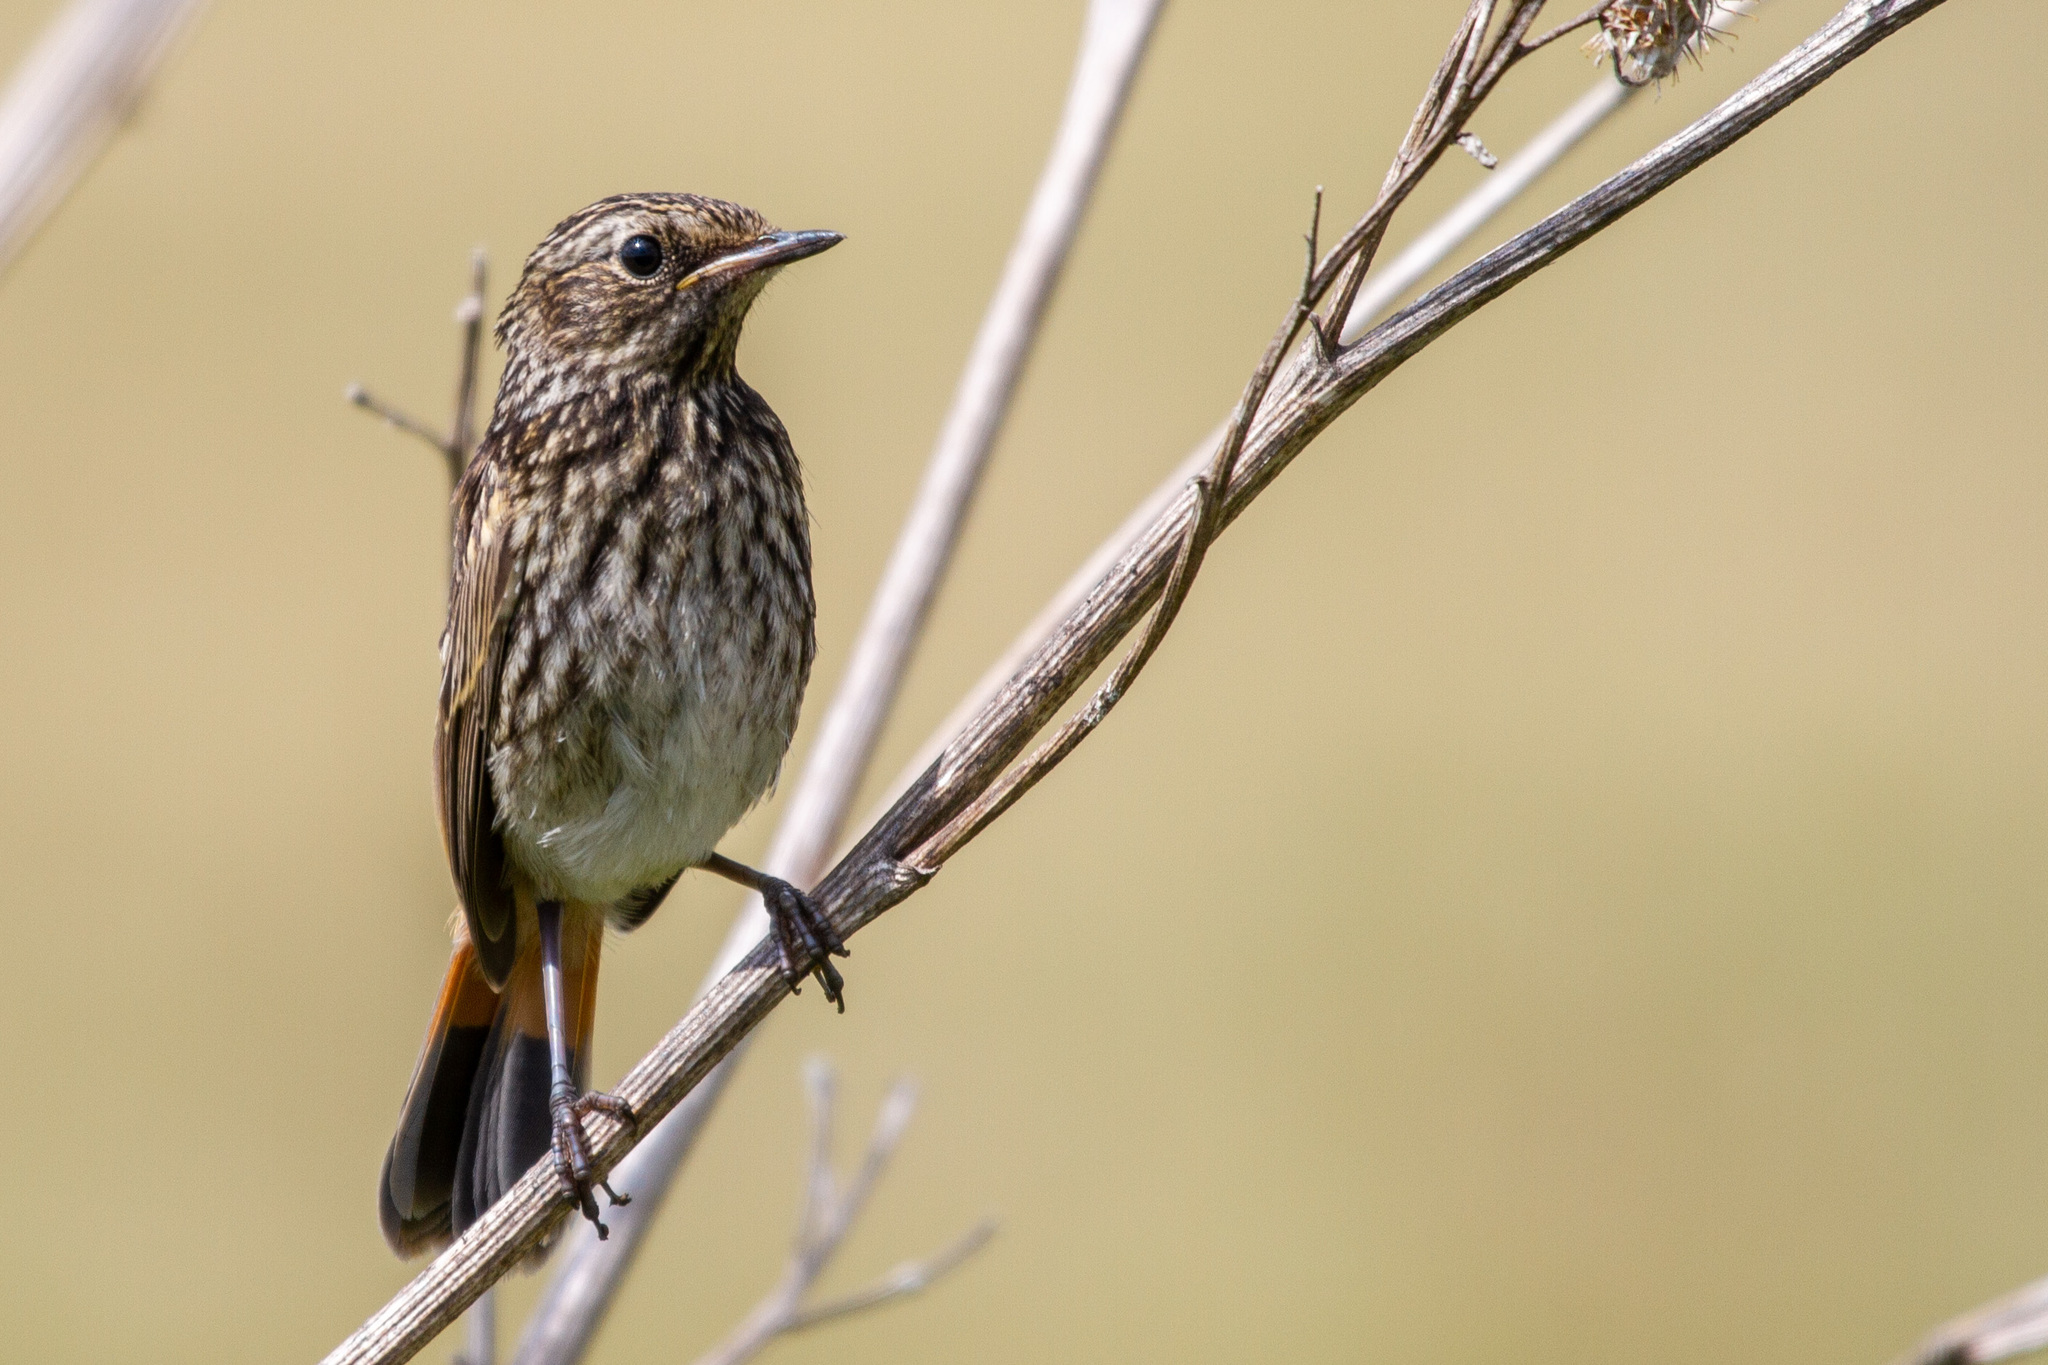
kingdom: Animalia
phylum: Chordata
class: Aves
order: Passeriformes
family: Muscicapidae
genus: Luscinia
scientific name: Luscinia svecica
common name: Bluethroat
